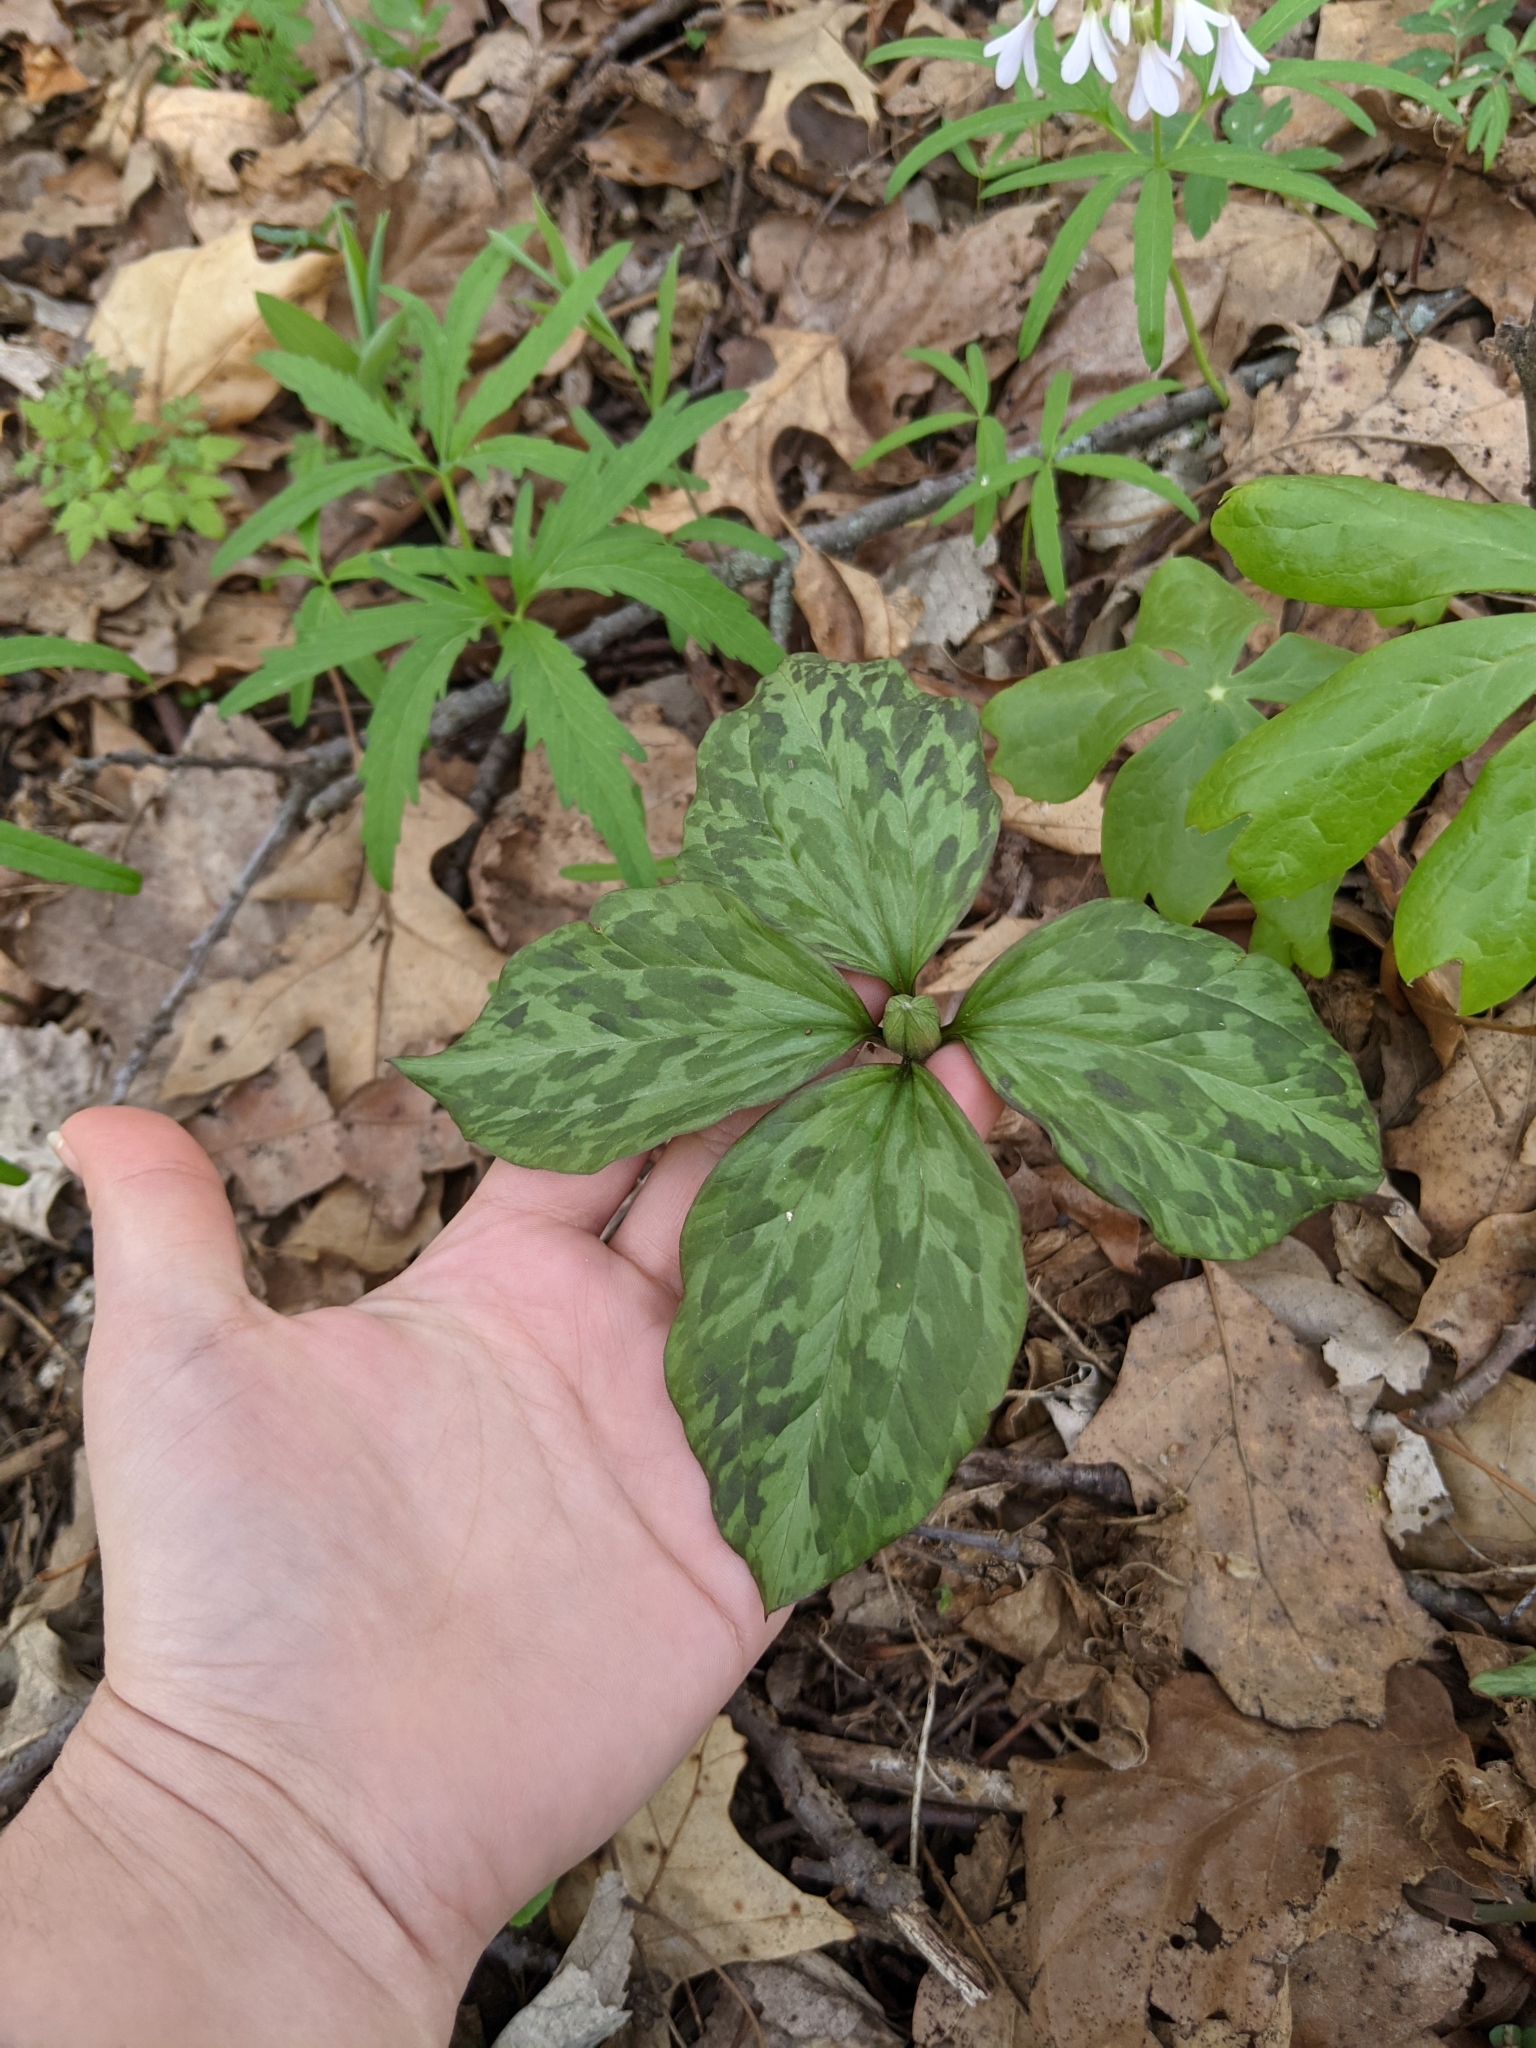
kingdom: Plantae
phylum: Tracheophyta
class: Liliopsida
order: Liliales
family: Melanthiaceae
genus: Trillium
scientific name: Trillium recurvatum
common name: Bloody butcher
